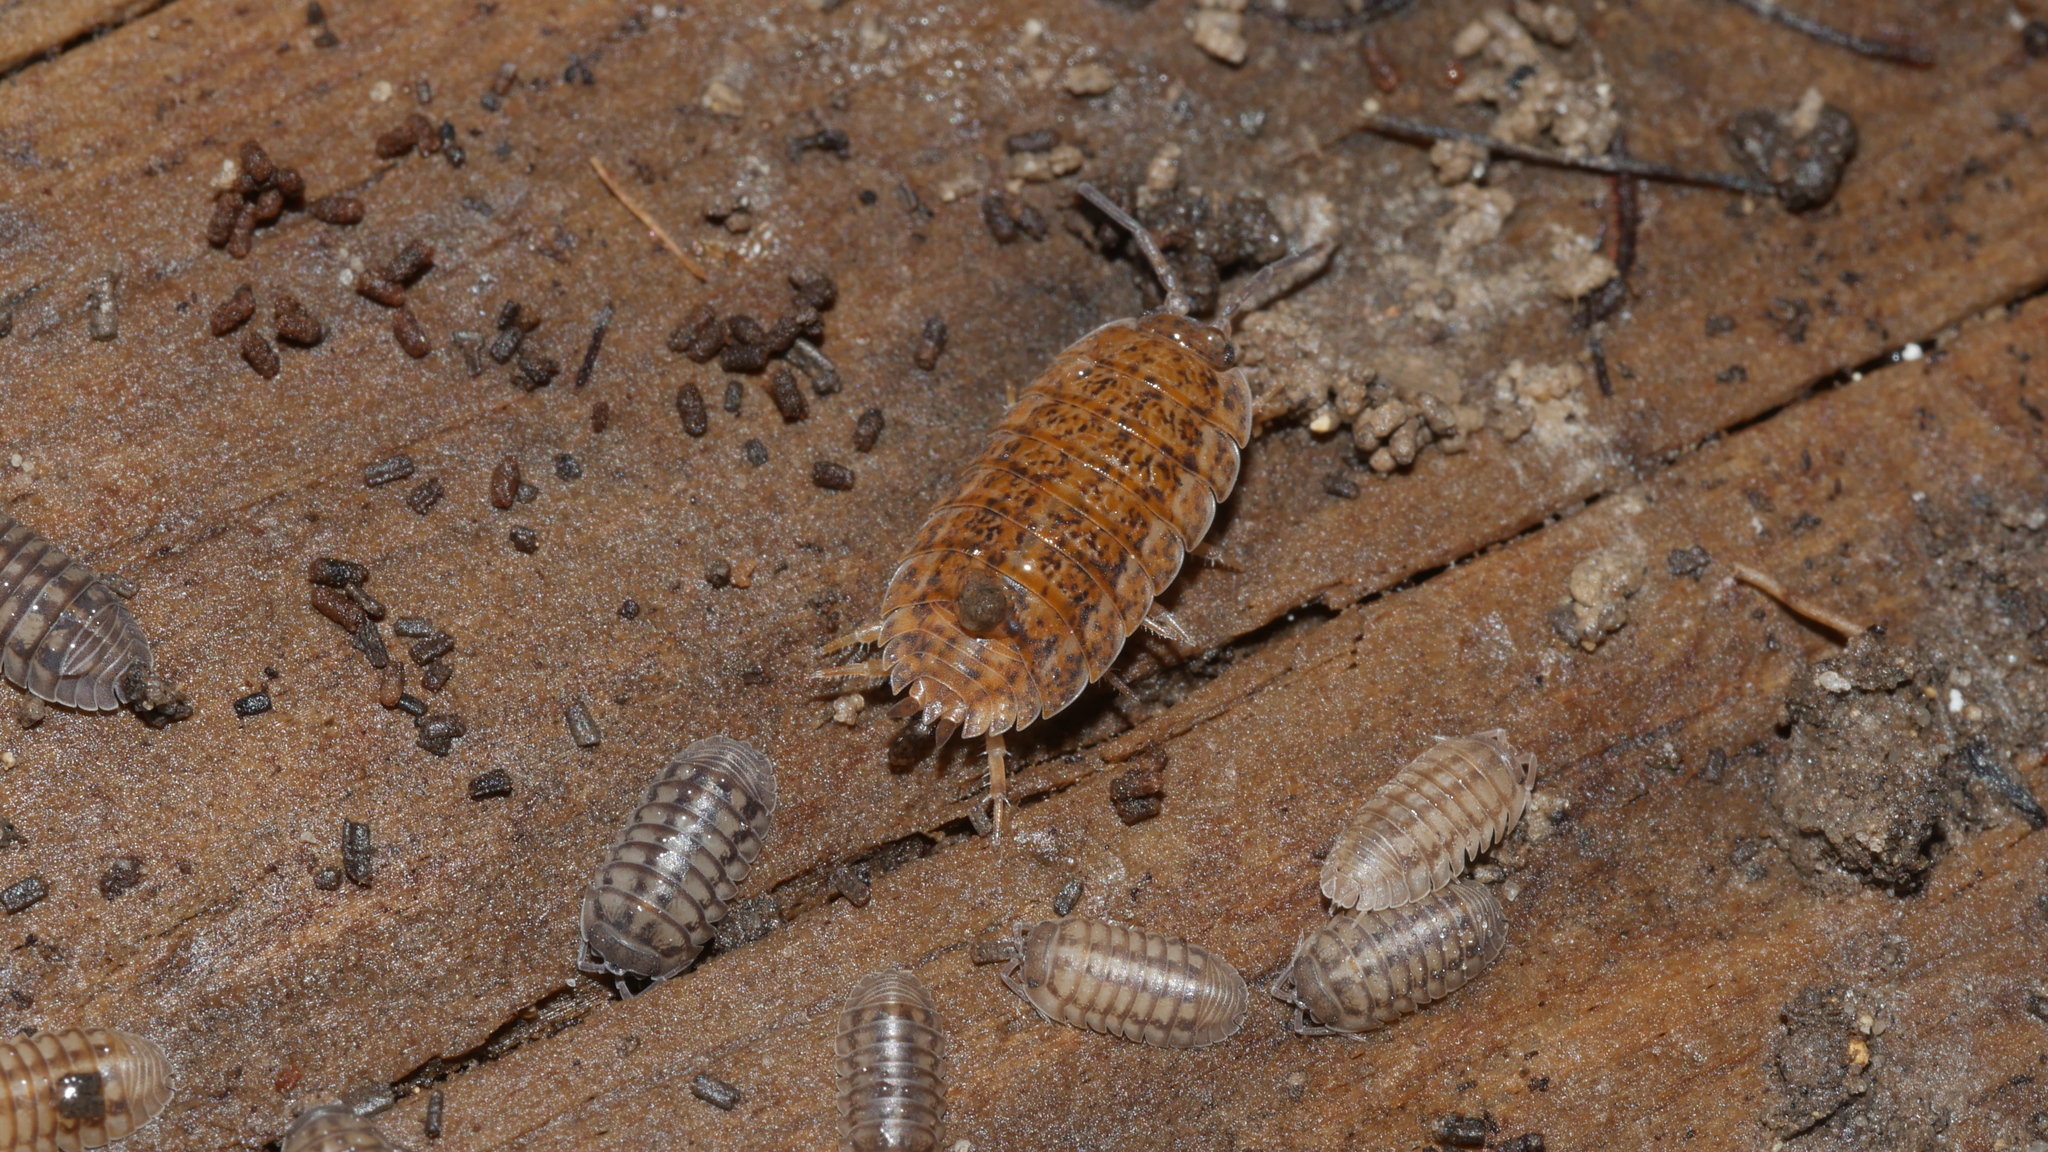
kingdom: Animalia
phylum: Arthropoda
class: Malacostraca
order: Isopoda
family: Trachelipodidae
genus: Trachelipus
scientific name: Trachelipus rathkii
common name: Isopod
